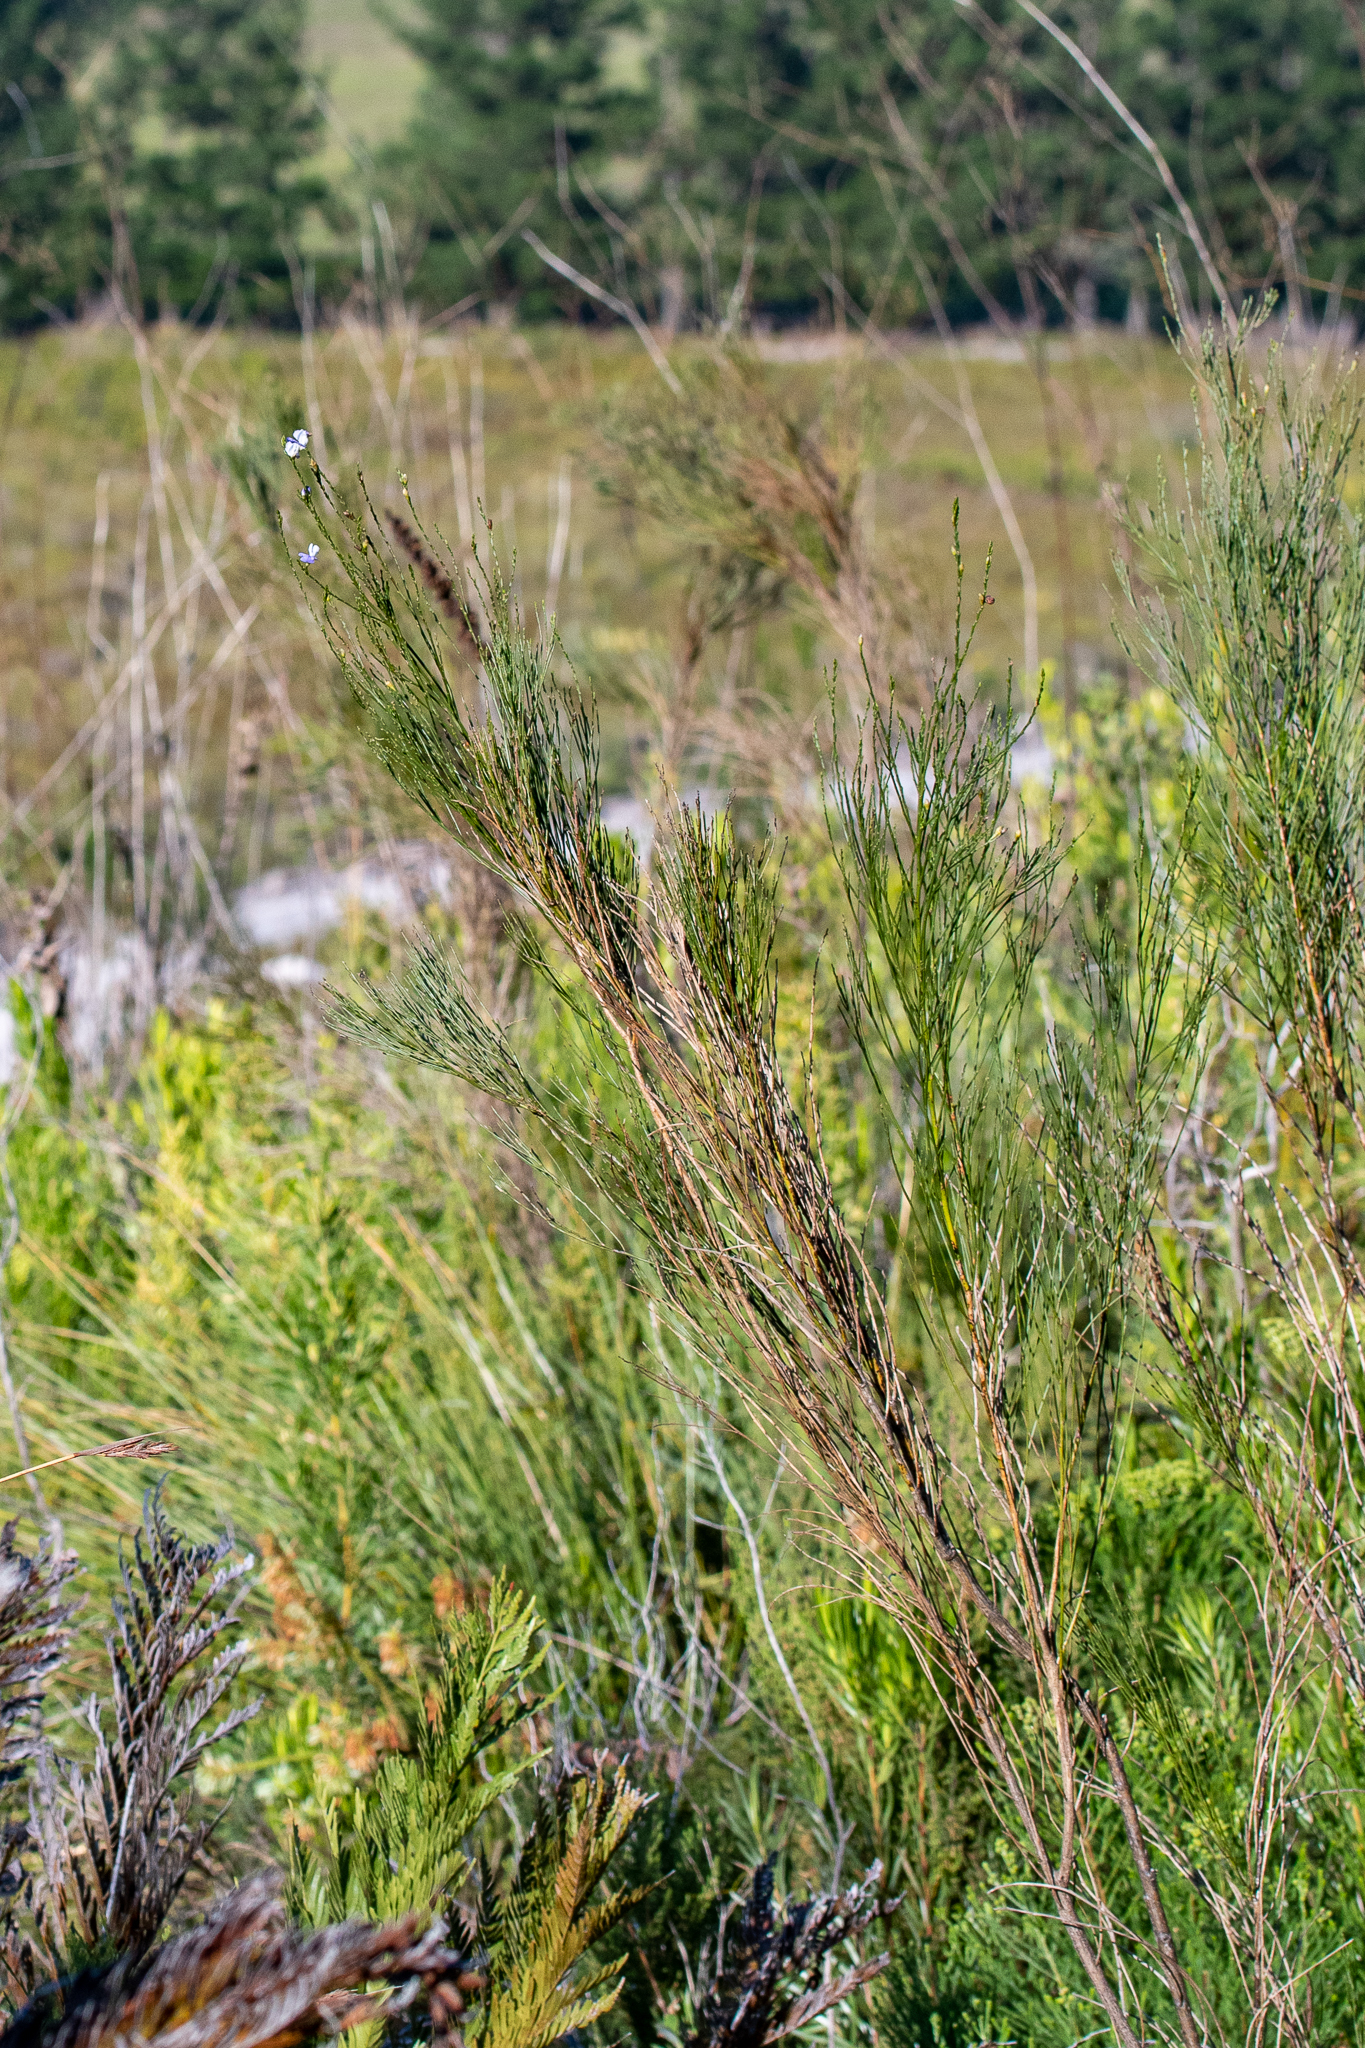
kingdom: Plantae
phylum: Tracheophyta
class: Magnoliopsida
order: Fabales
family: Fabaceae
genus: Psoralea
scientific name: Psoralea usitata
